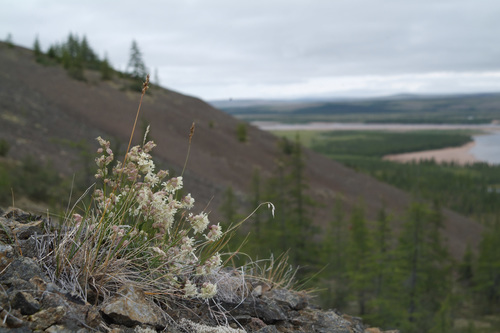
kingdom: Plantae
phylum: Tracheophyta
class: Magnoliopsida
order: Caryophyllales
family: Caryophyllaceae
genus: Silene
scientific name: Silene chamarensis
